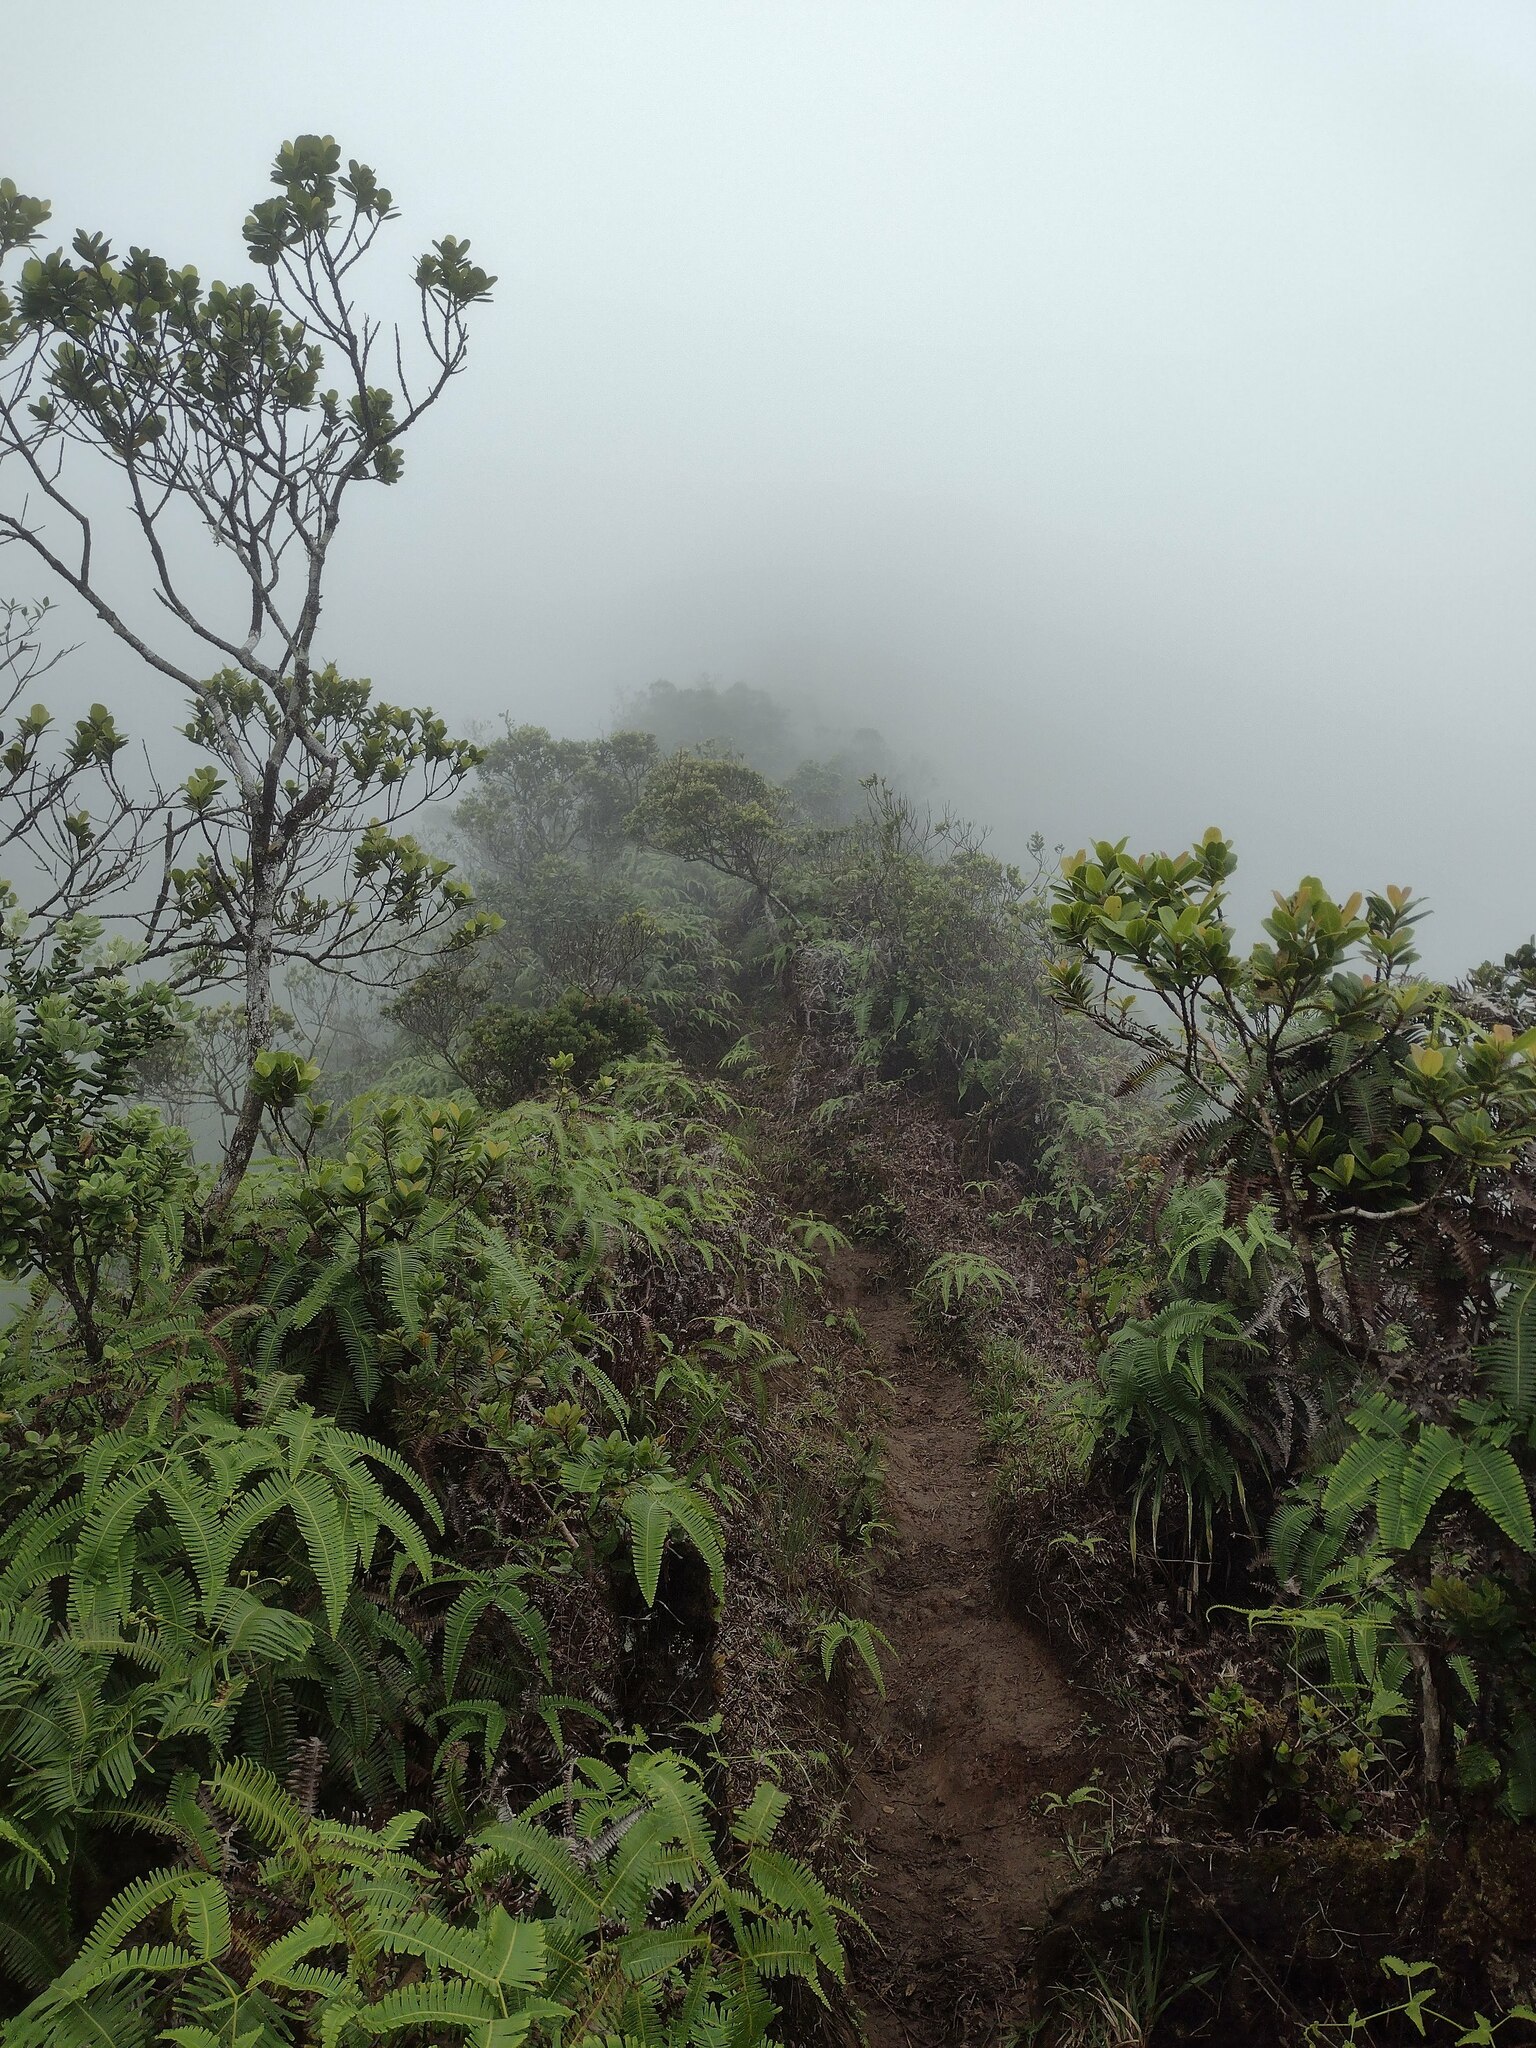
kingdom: Plantae
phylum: Tracheophyta
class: Magnoliopsida
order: Myrtales
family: Myrtaceae
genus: Metrosideros
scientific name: Metrosideros polymorpha
